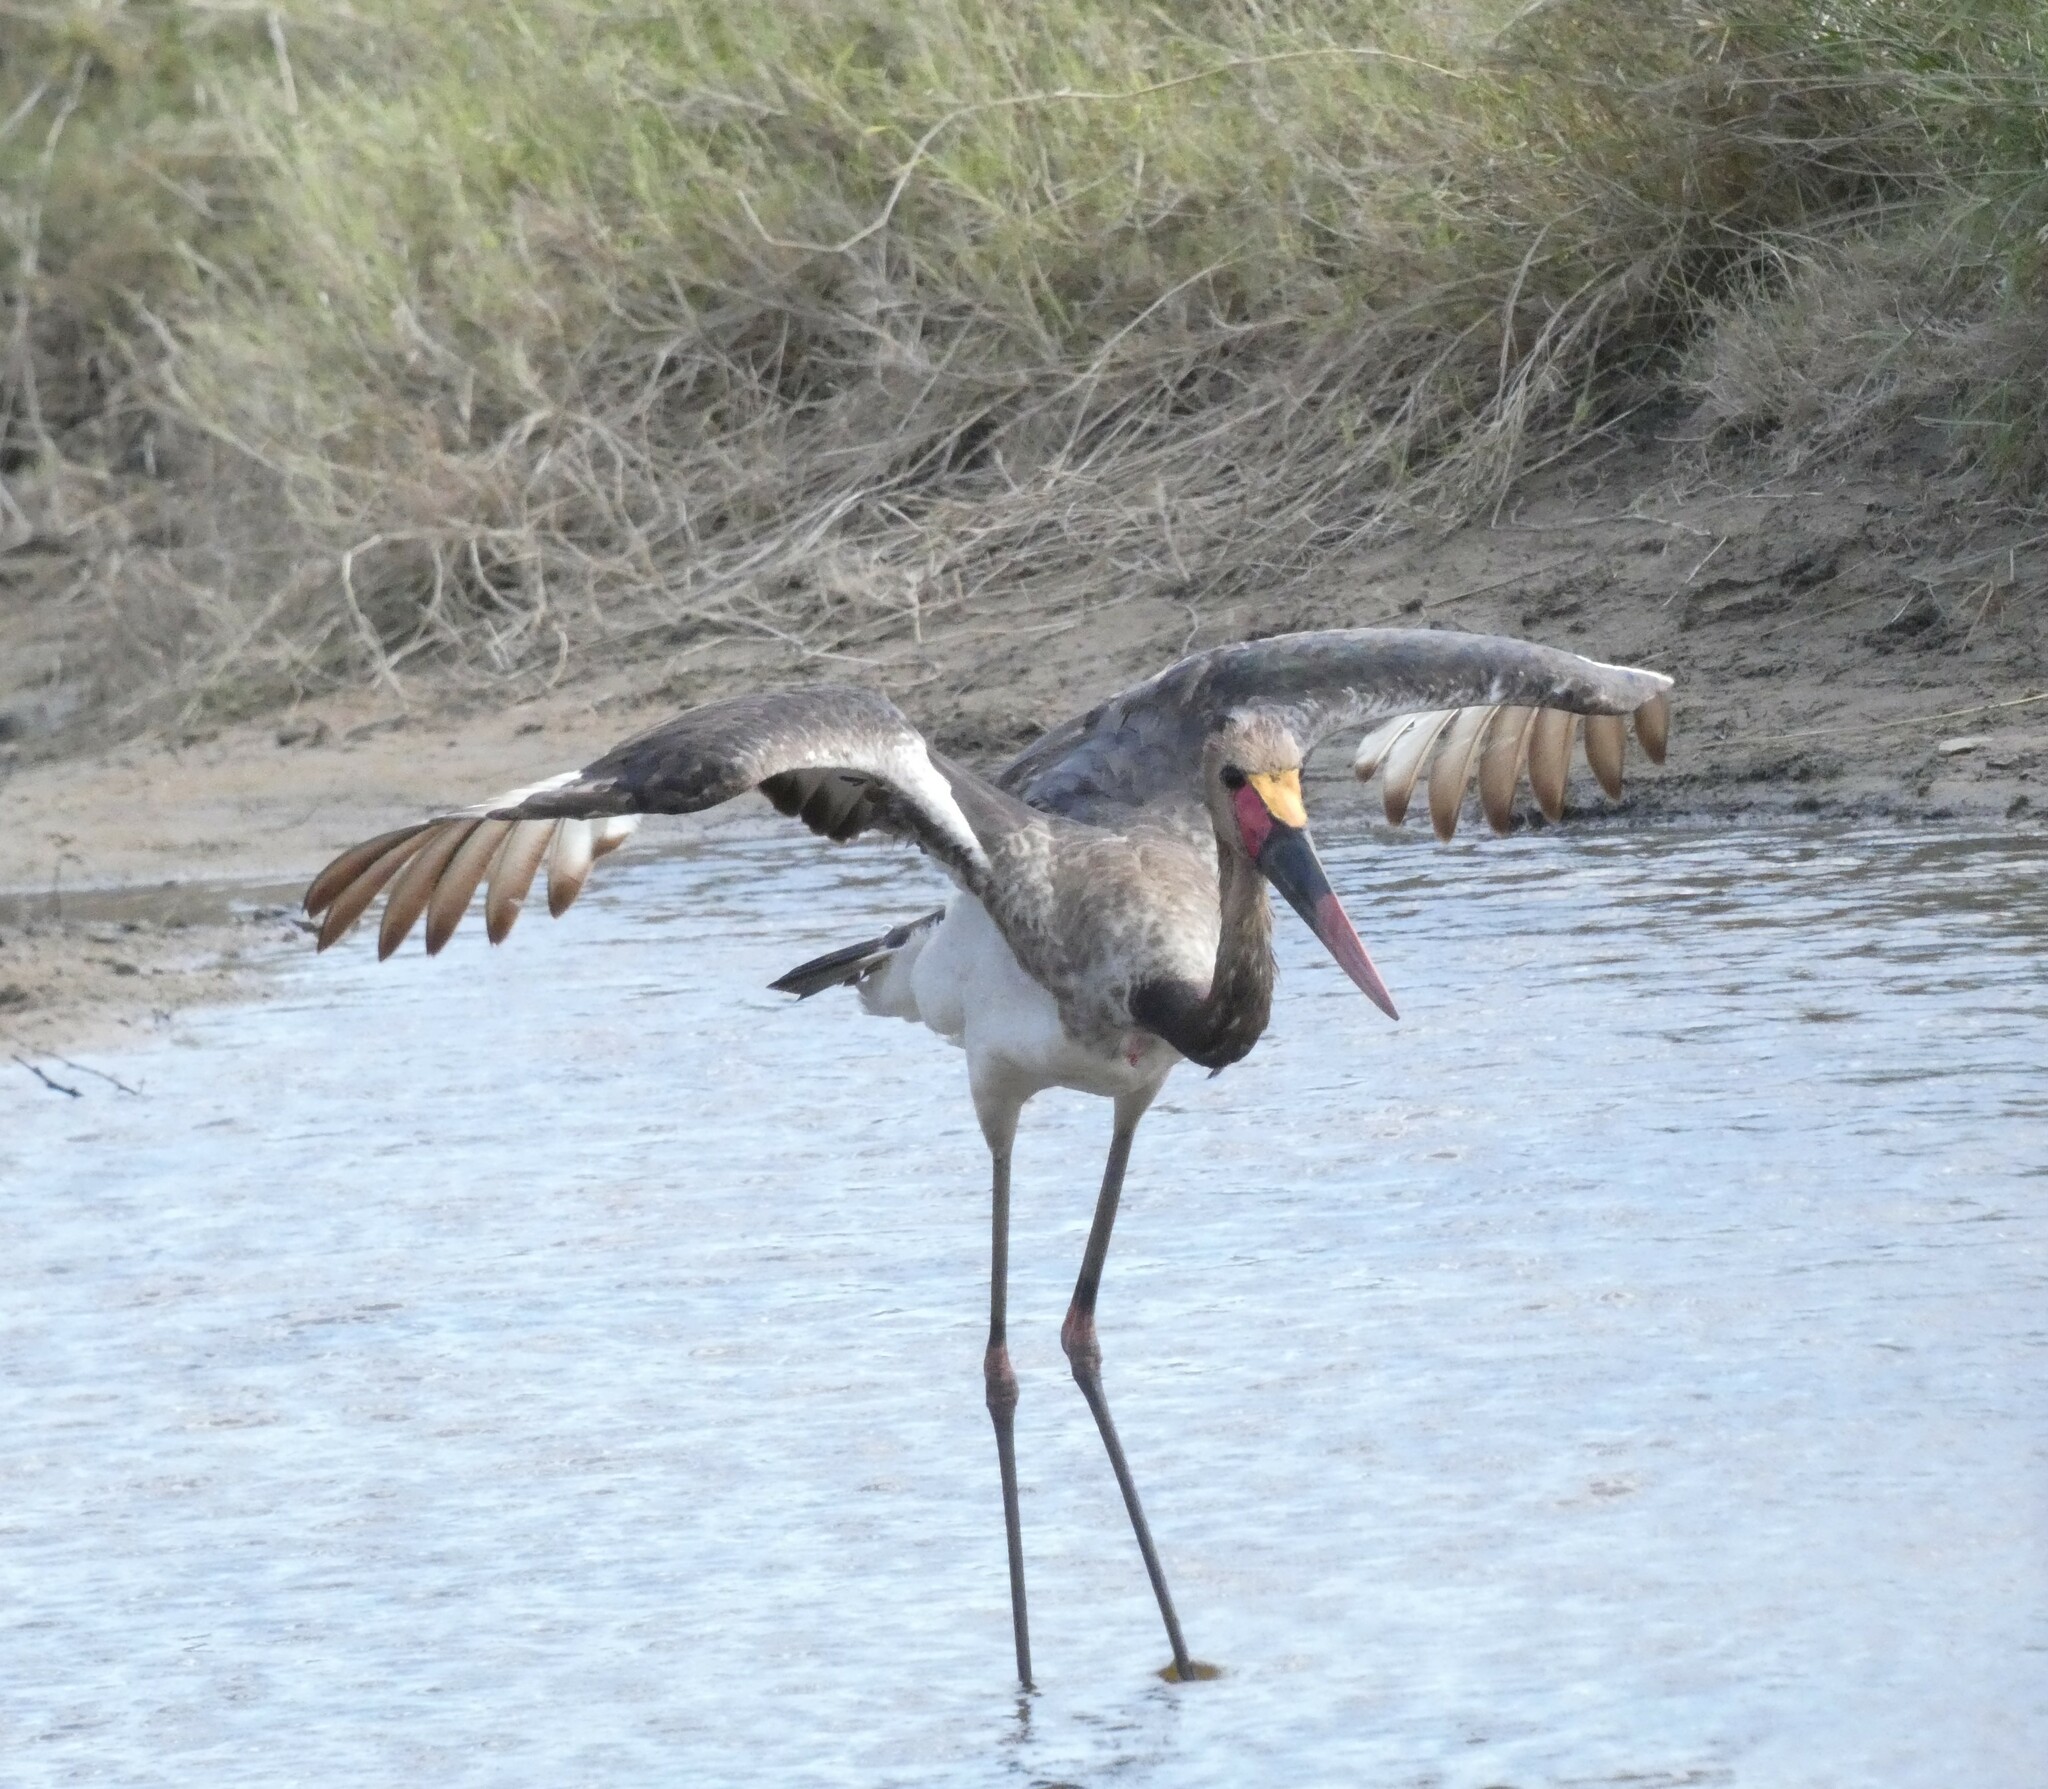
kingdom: Animalia
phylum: Chordata
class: Aves
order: Ciconiiformes
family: Ciconiidae
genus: Ephippiorhynchus
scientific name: Ephippiorhynchus senegalensis
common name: Saddle-billed stork
